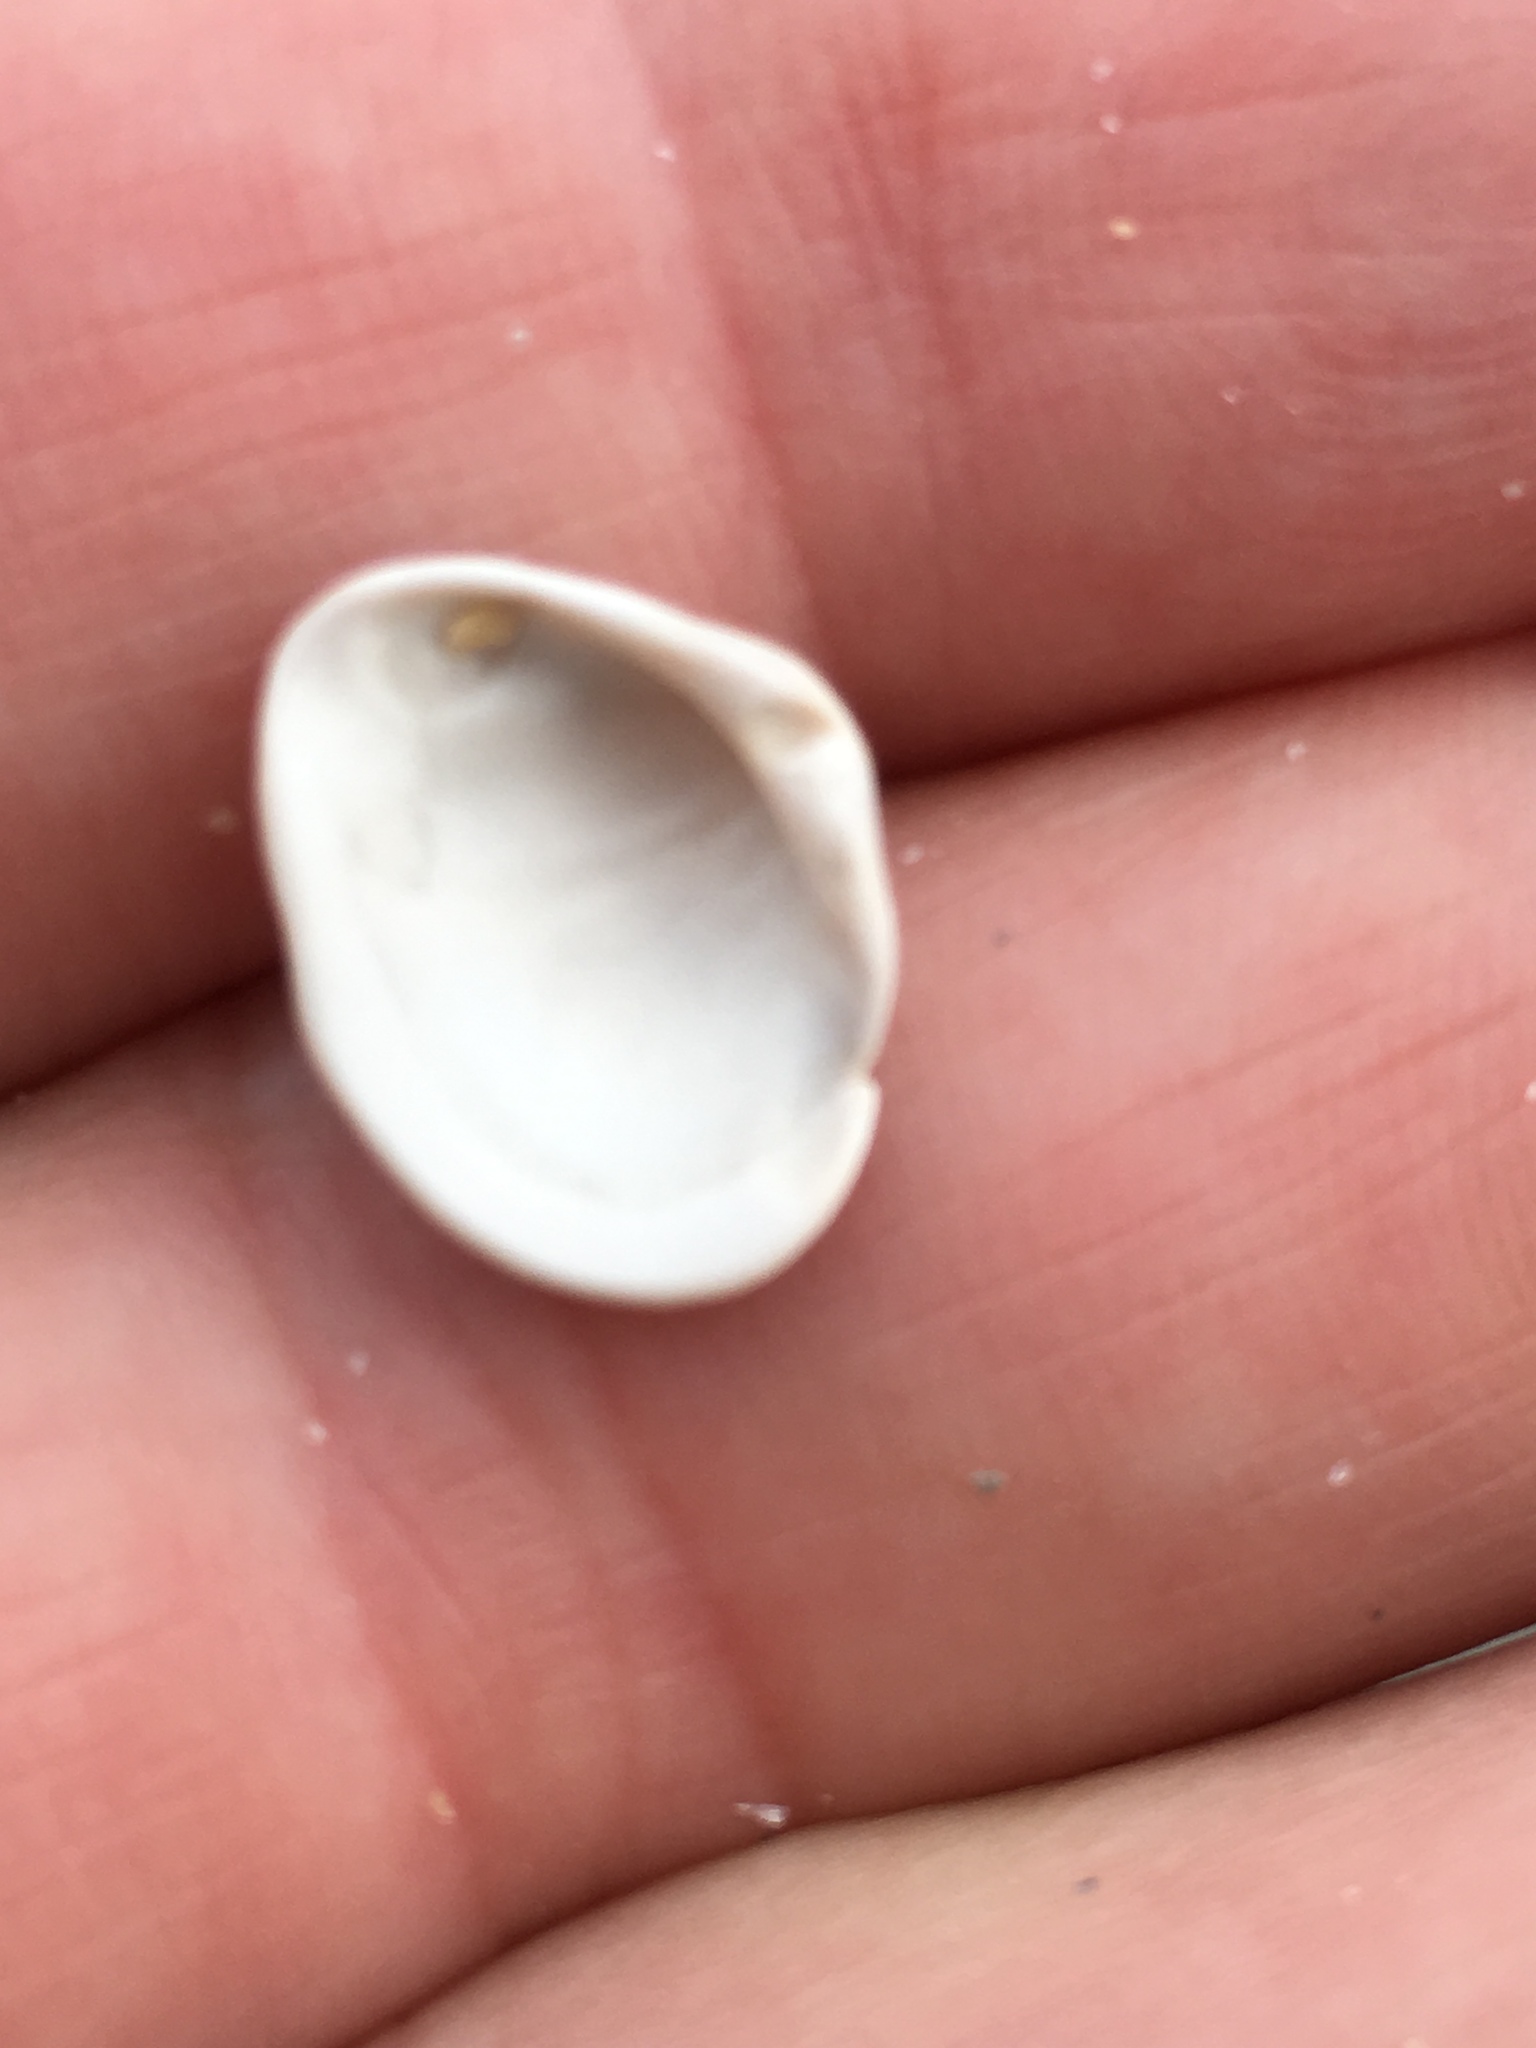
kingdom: Animalia
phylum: Mollusca
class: Bivalvia
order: Venerida
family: Mactridae
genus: Rangia
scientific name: Rangia cuneata
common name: Atlantic rangia
